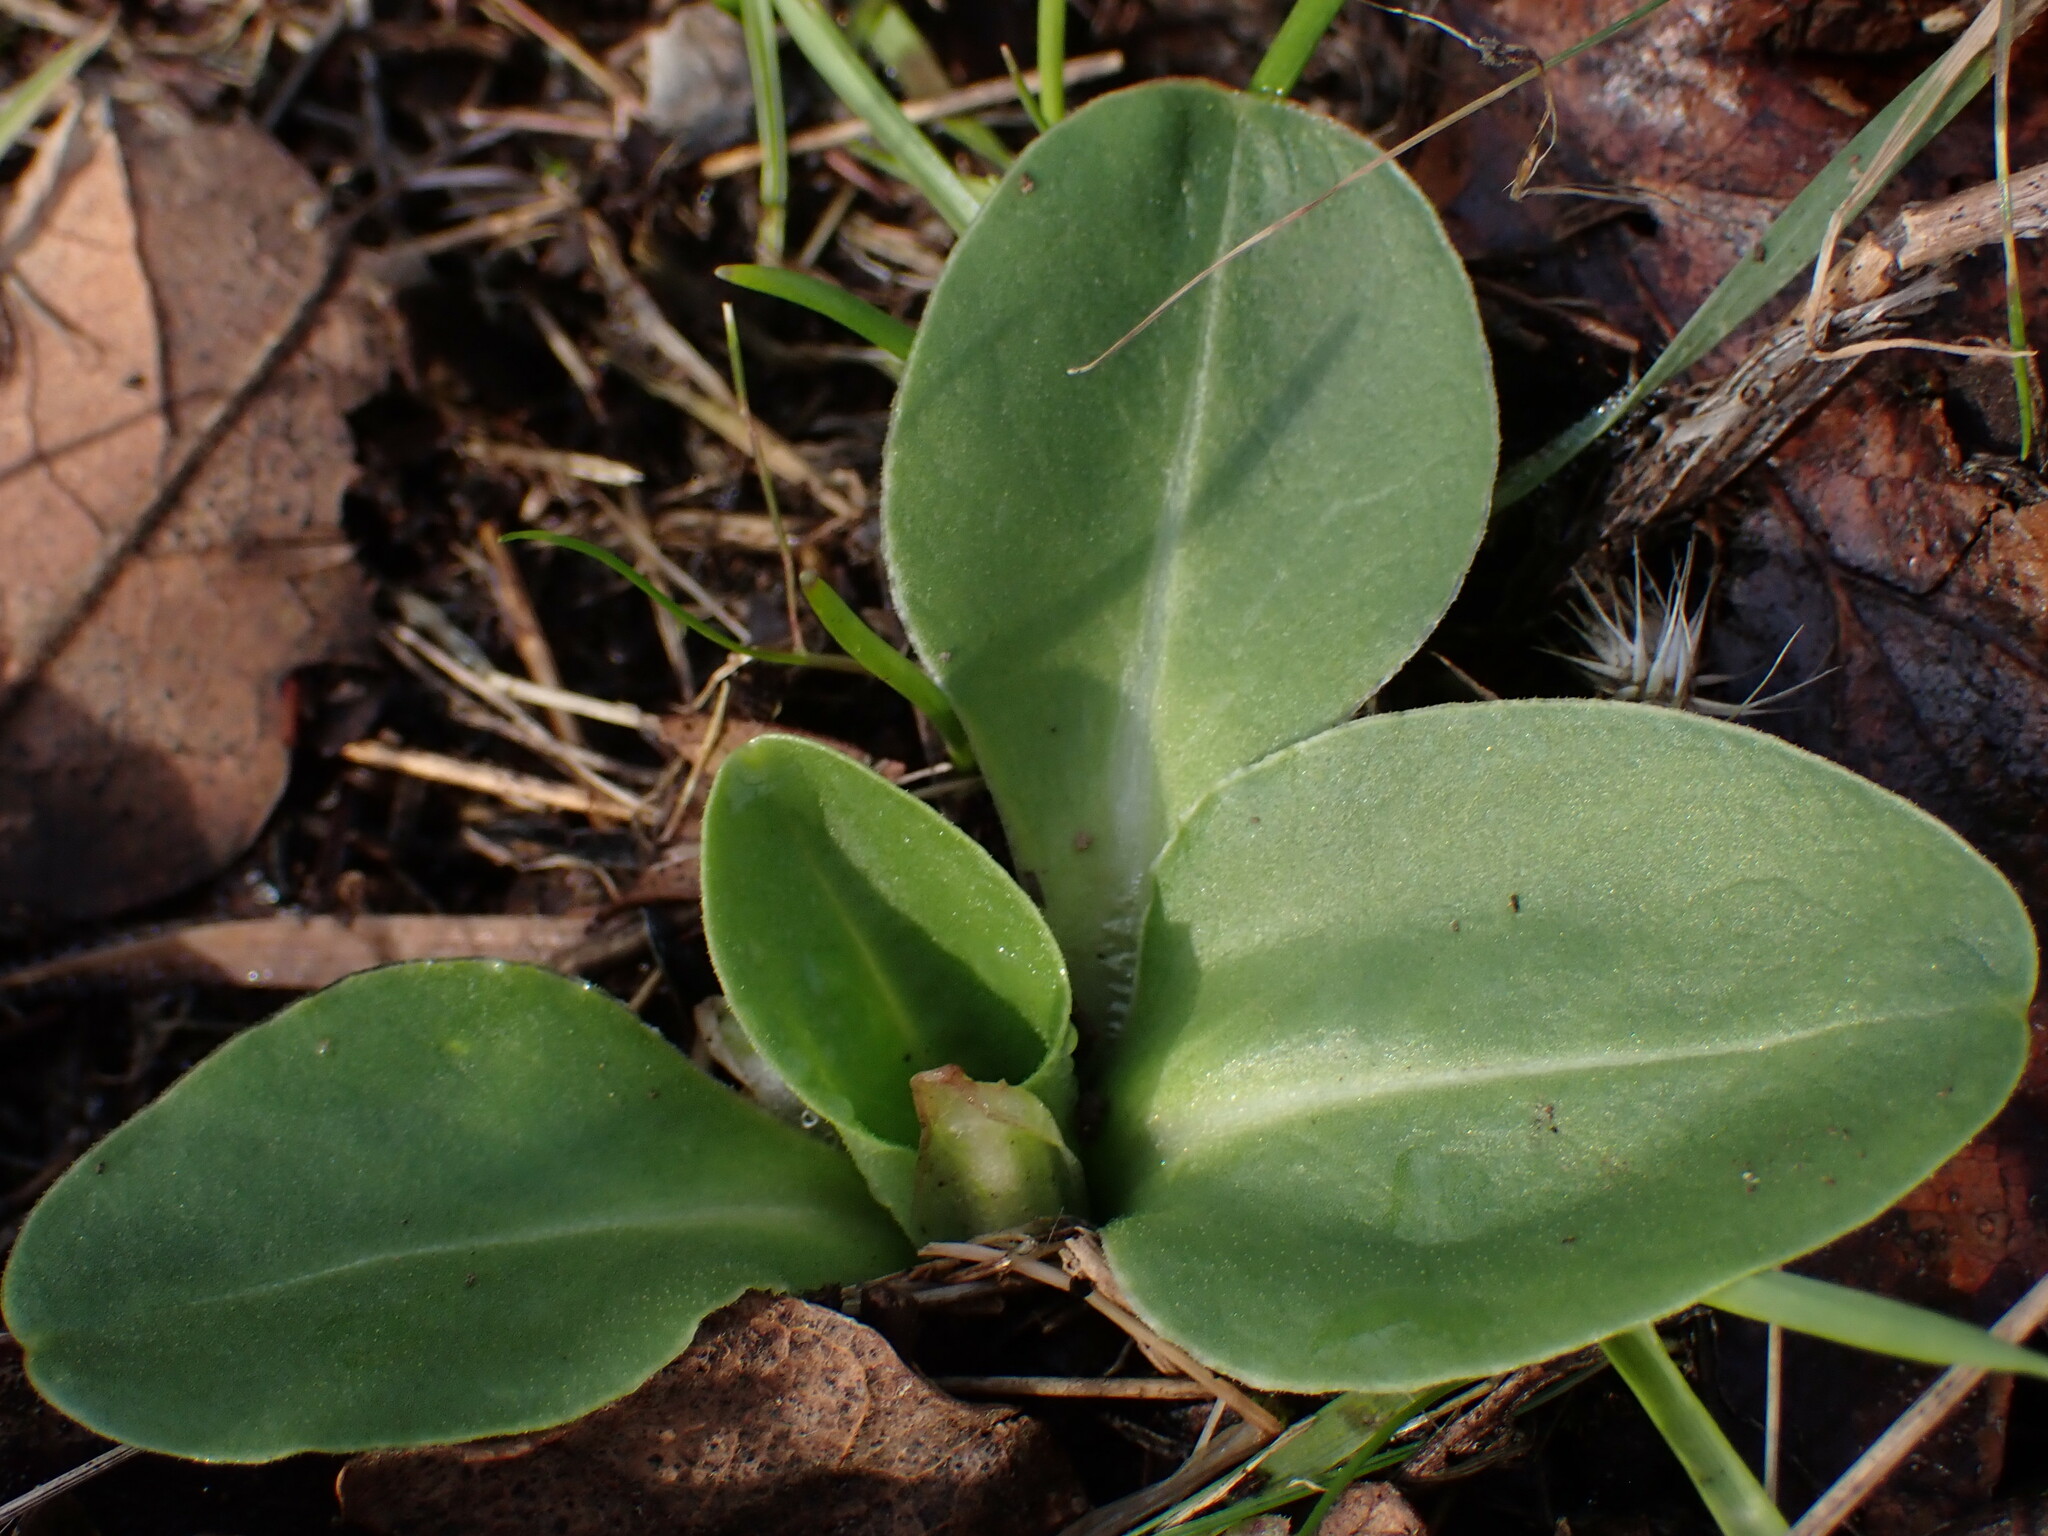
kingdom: Plantae
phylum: Tracheophyta
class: Magnoliopsida
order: Ericales
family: Primulaceae
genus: Dodecatheon
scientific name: Dodecatheon hendersonii
